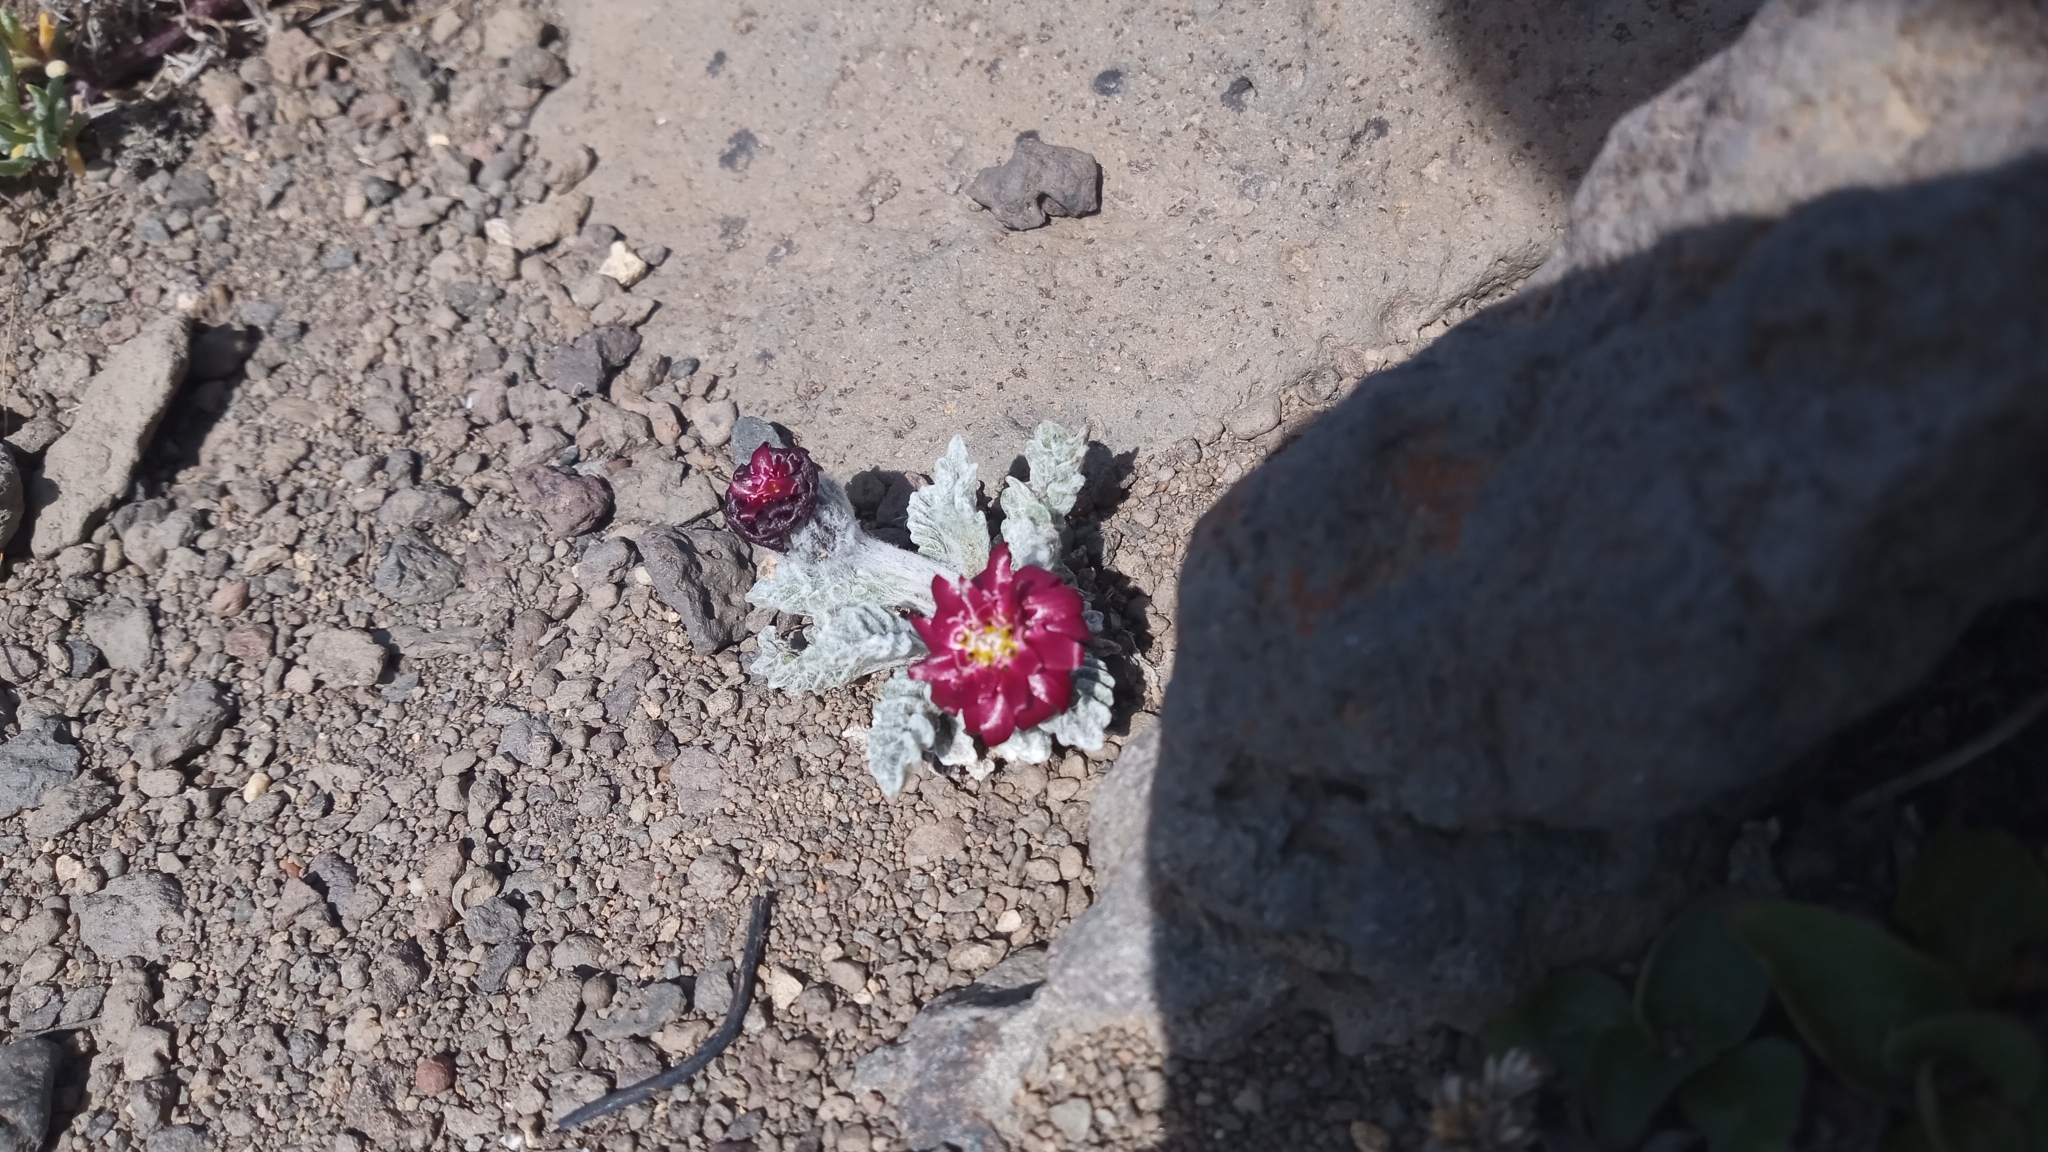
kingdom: Plantae
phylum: Tracheophyta
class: Magnoliopsida
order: Asterales
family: Asteraceae
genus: Leucheria
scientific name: Leucheria purpurea
